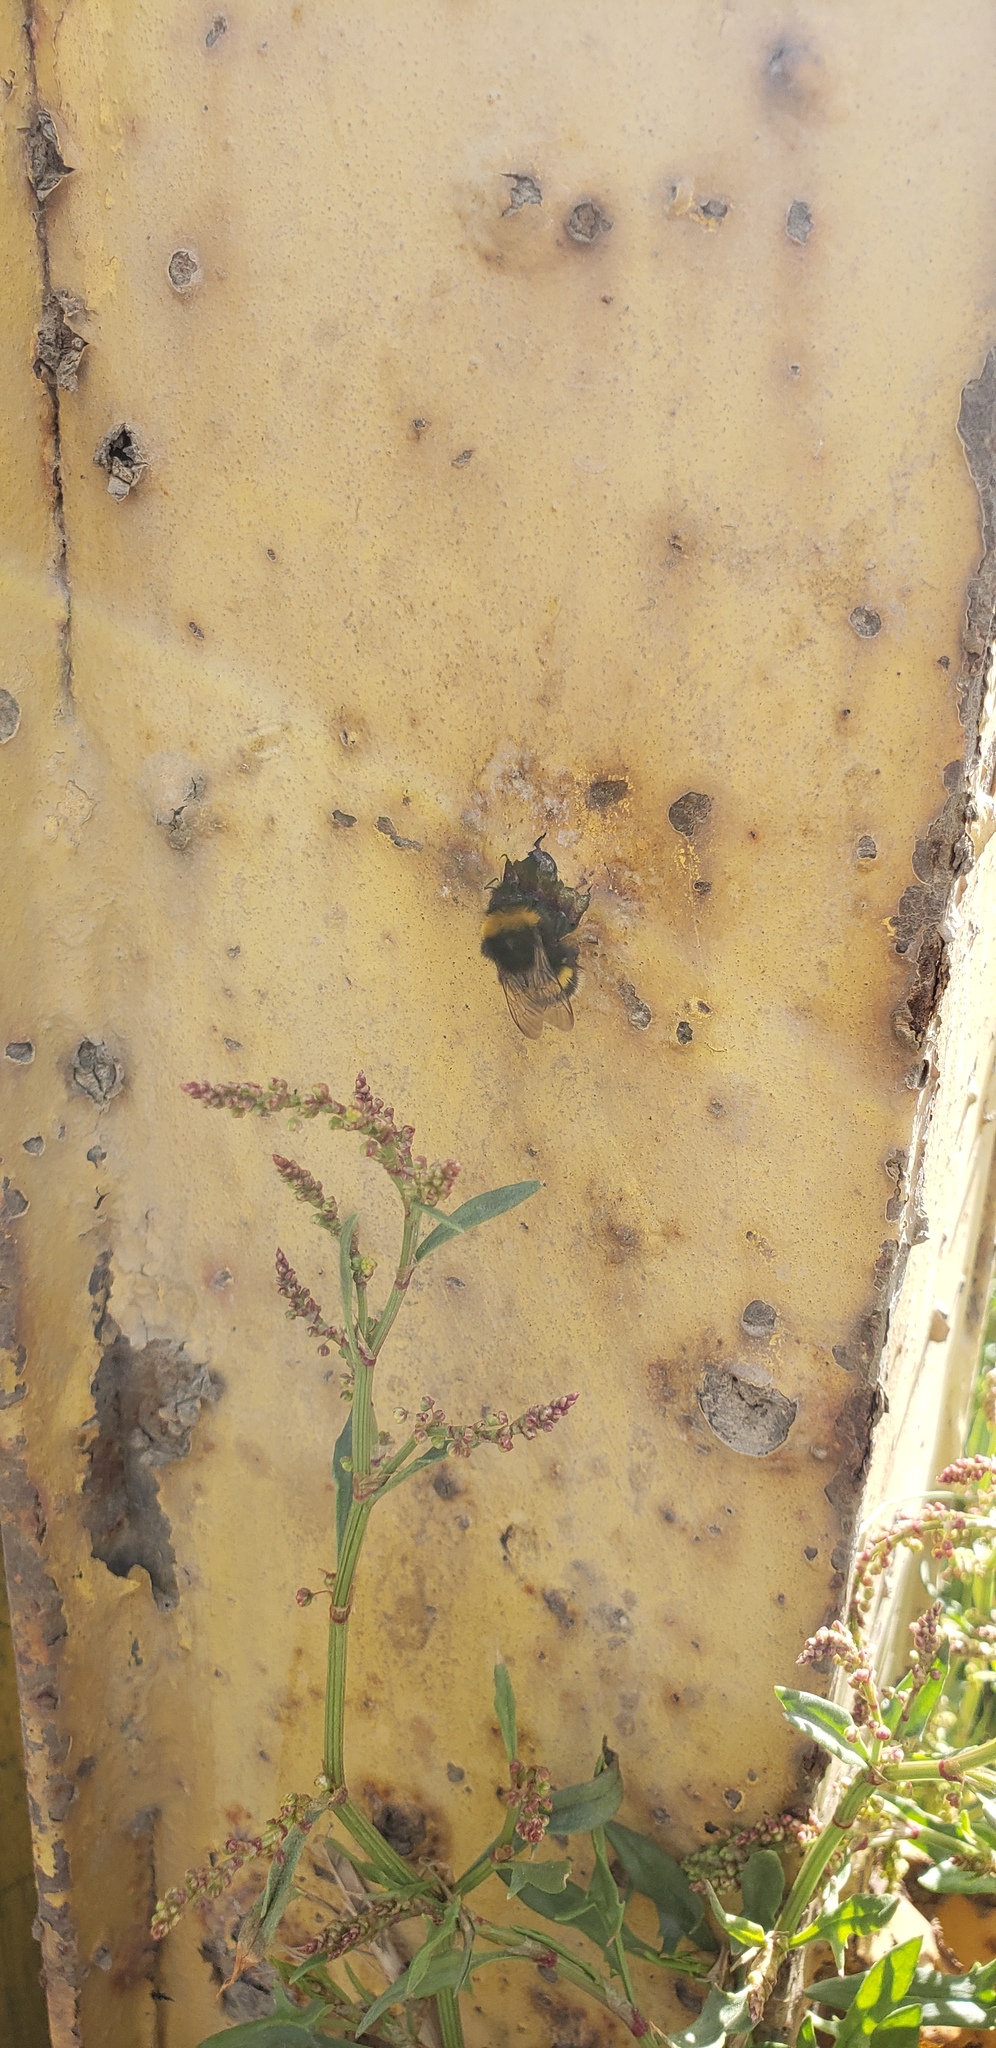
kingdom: Animalia
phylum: Arthropoda
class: Insecta
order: Hymenoptera
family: Apidae
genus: Bombus
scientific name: Bombus terrestris
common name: Buff-tailed bumblebee
